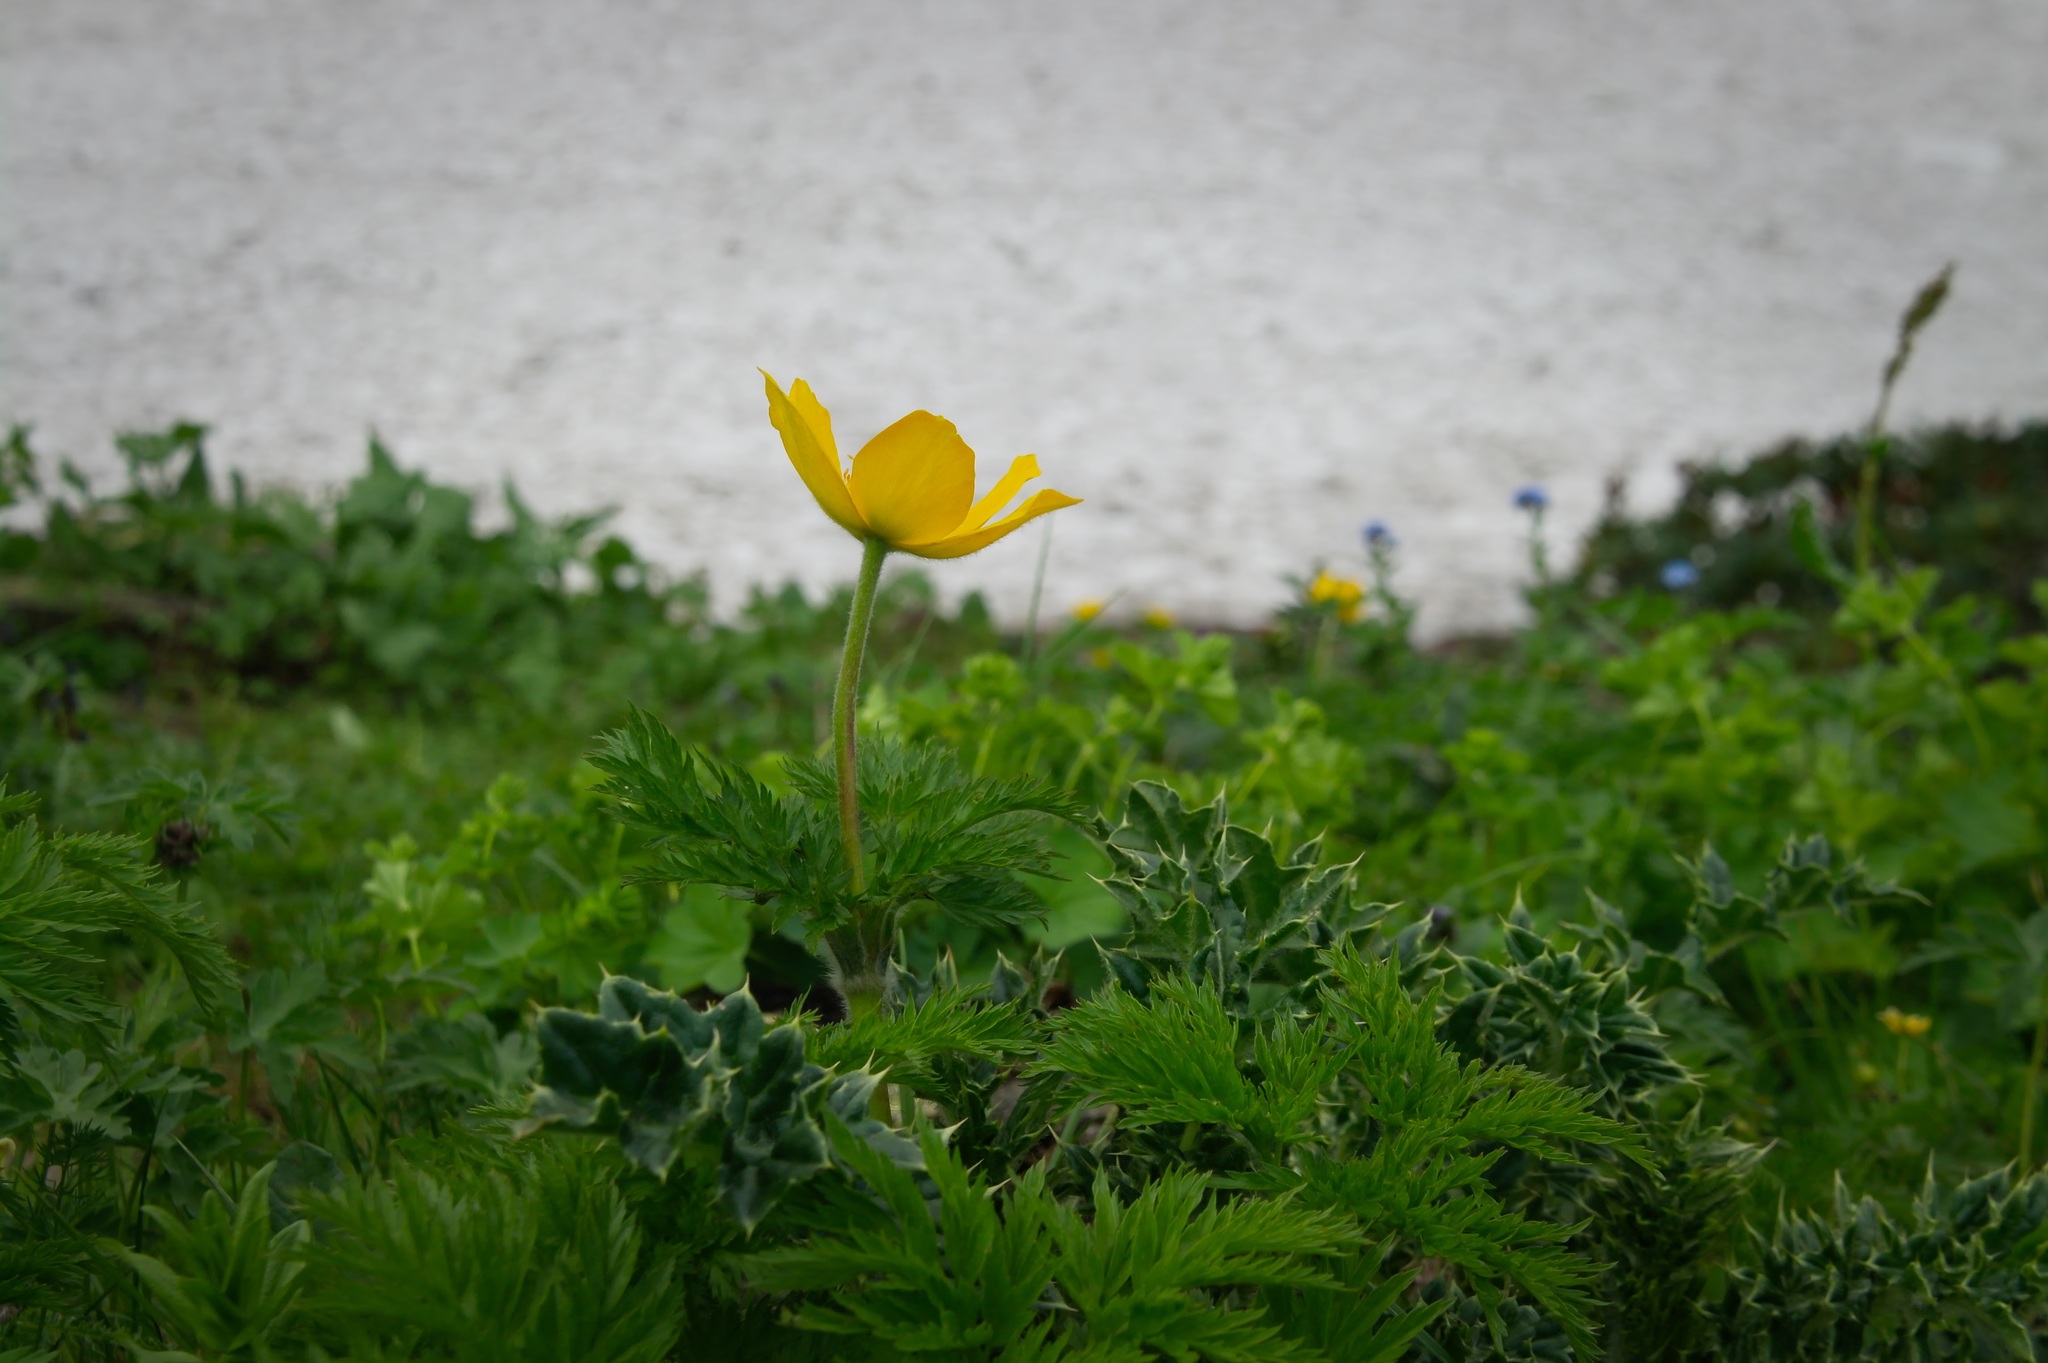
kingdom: Plantae
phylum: Tracheophyta
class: Magnoliopsida
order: Ranunculales
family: Ranunculaceae
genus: Pulsatilla
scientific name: Pulsatilla aurea
